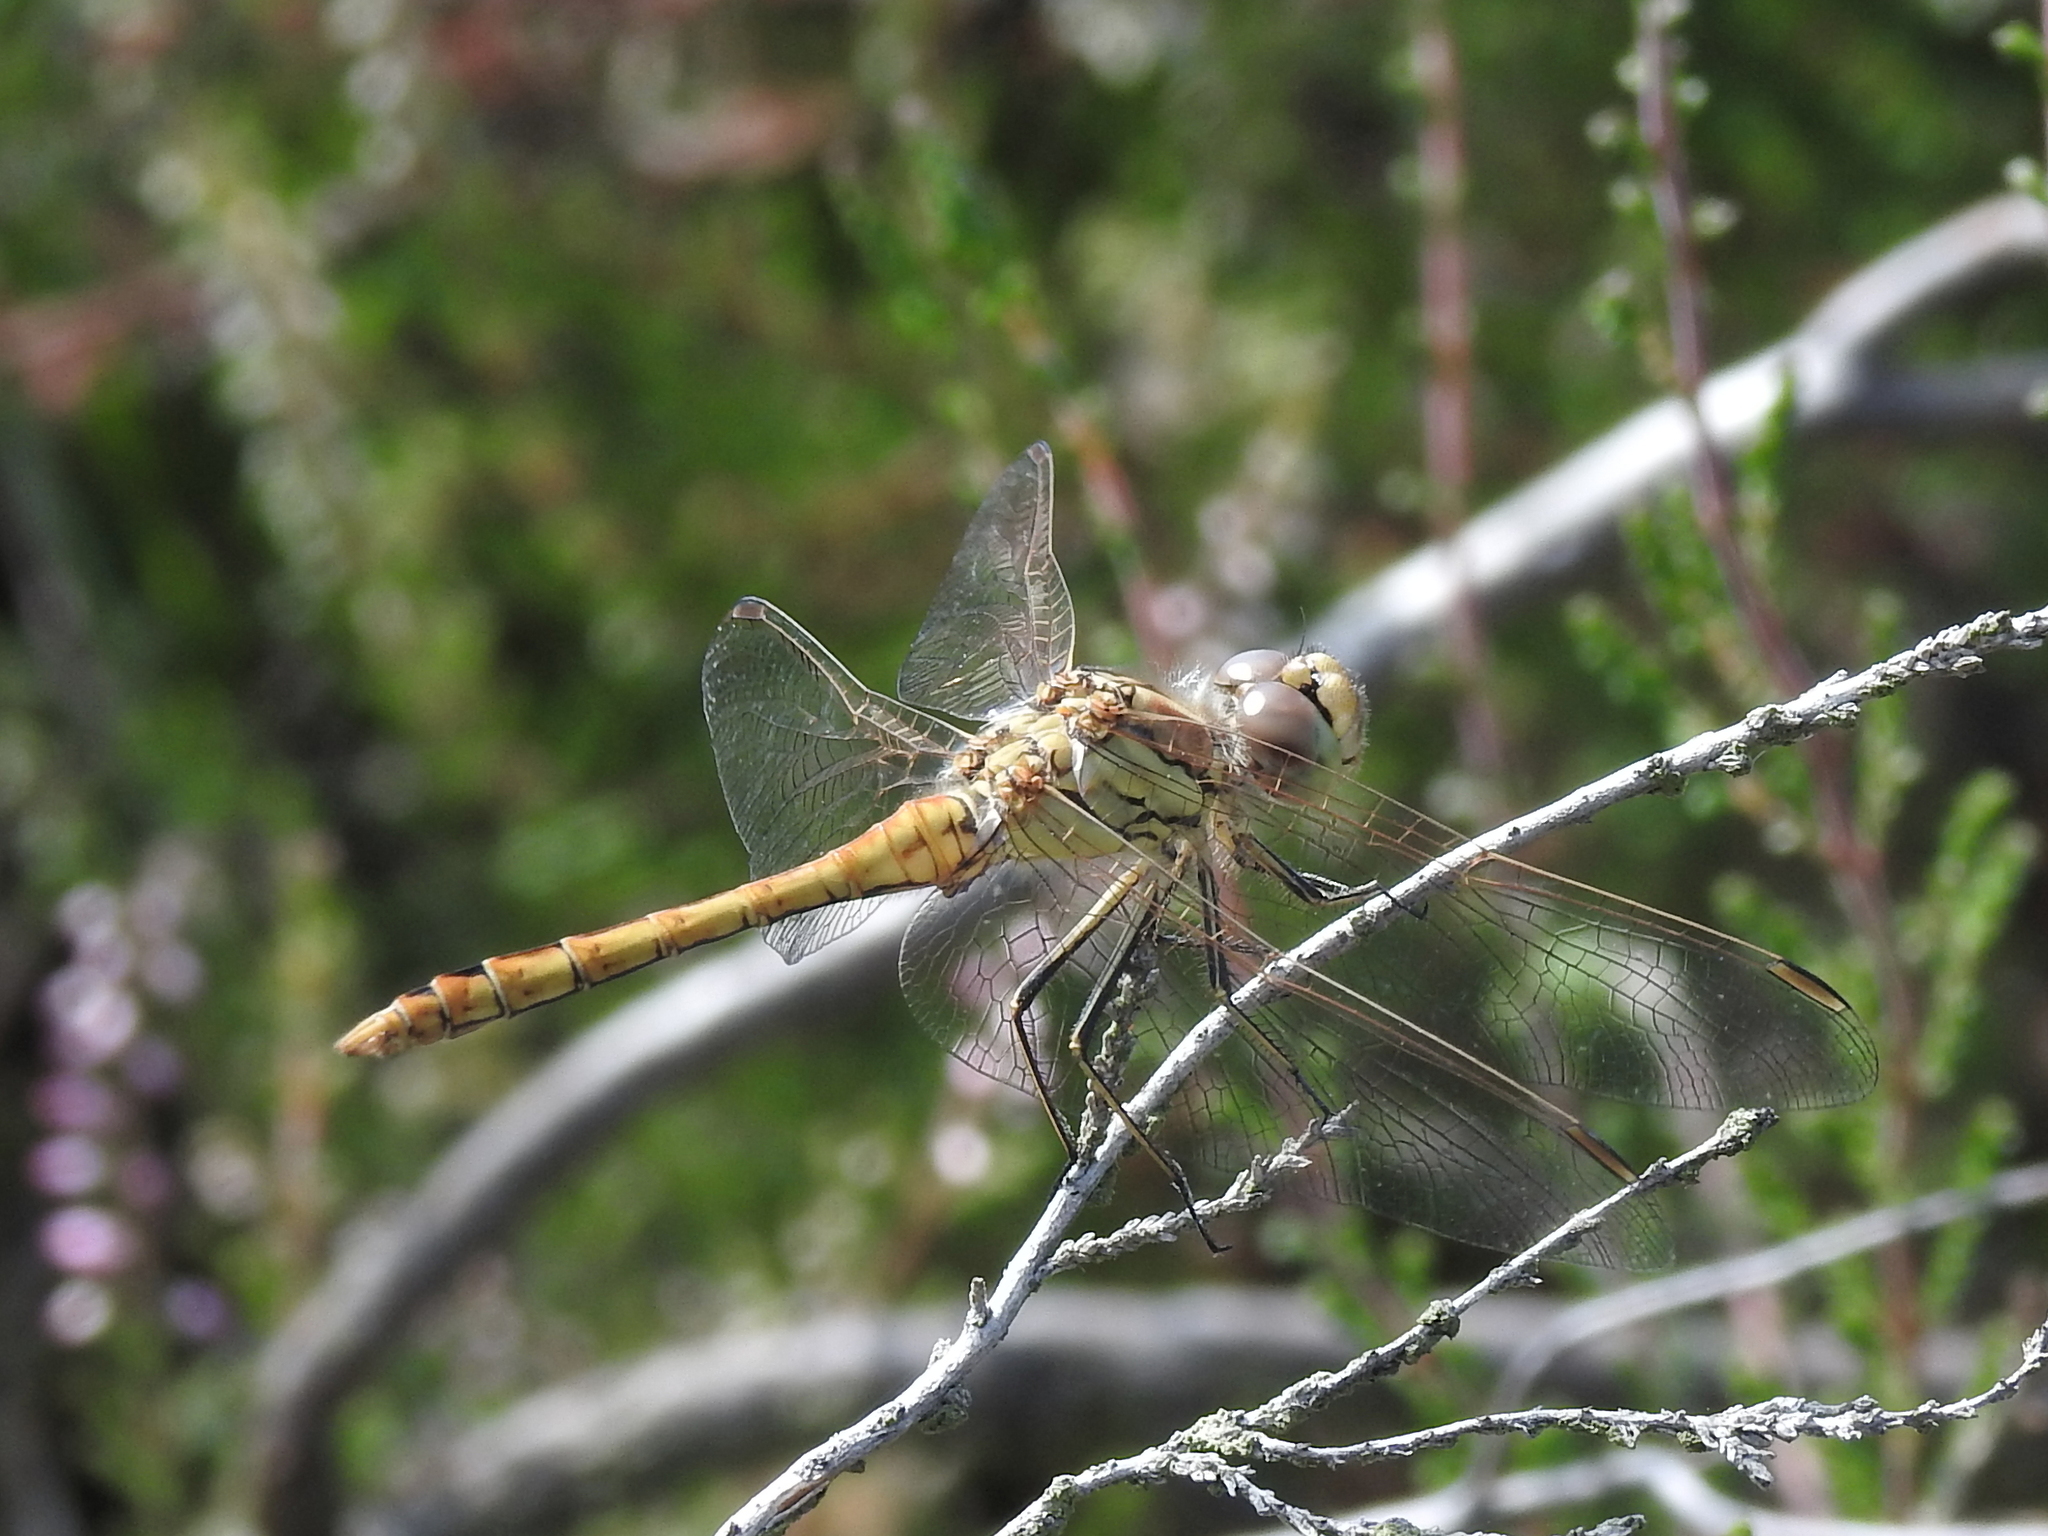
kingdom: Animalia
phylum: Arthropoda
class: Insecta
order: Odonata
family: Libellulidae
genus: Sympetrum
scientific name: Sympetrum vulgatum
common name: Vagrant darter
